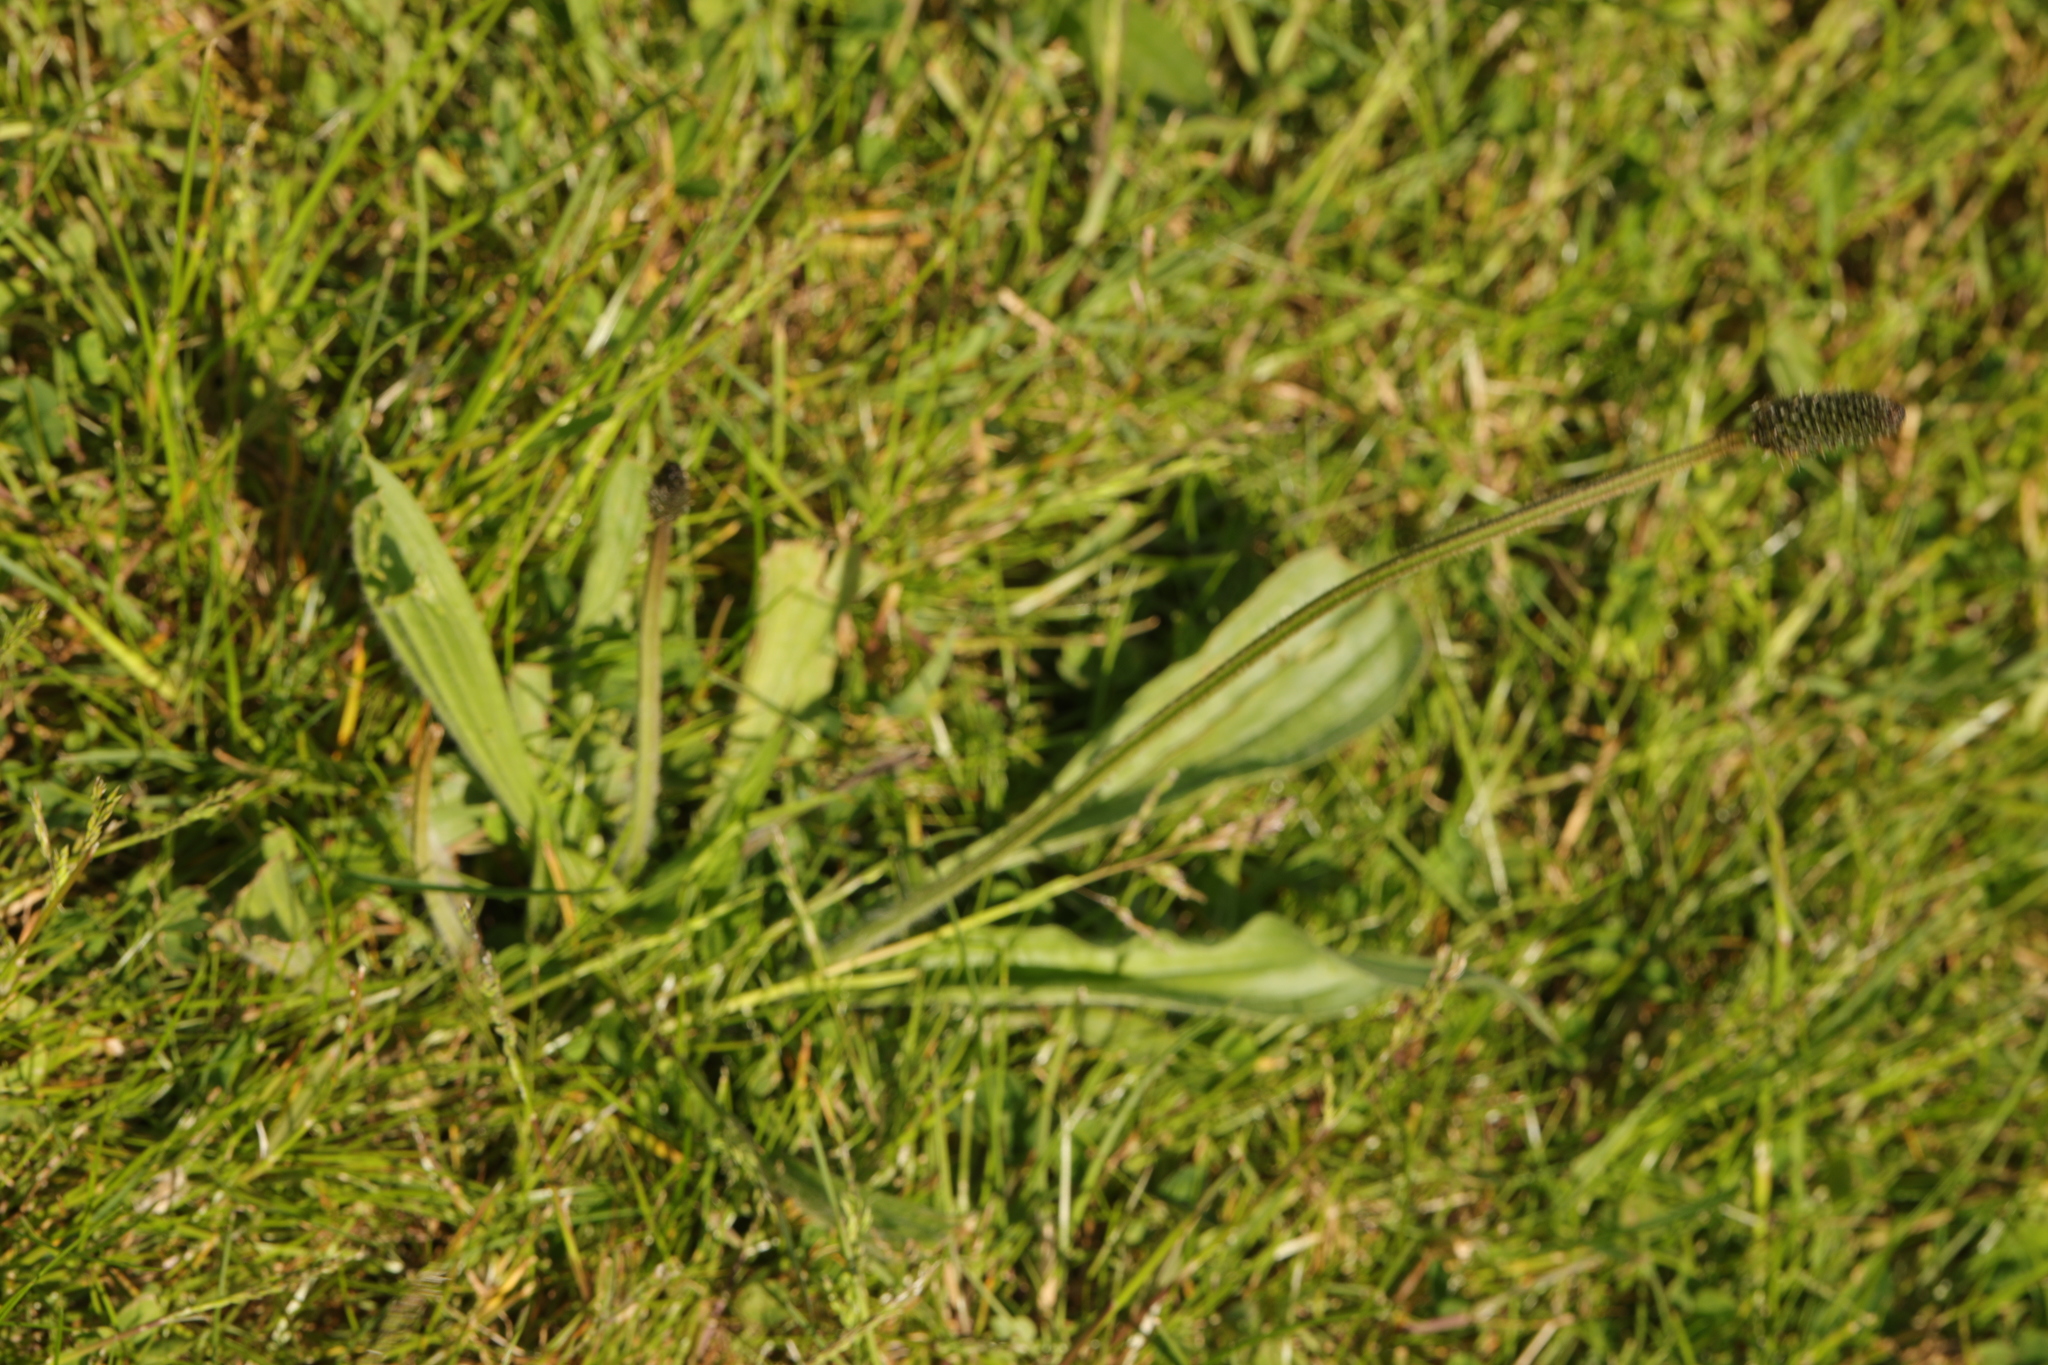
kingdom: Plantae
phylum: Tracheophyta
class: Magnoliopsida
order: Lamiales
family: Plantaginaceae
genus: Plantago
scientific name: Plantago lanceolata
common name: Ribwort plantain
